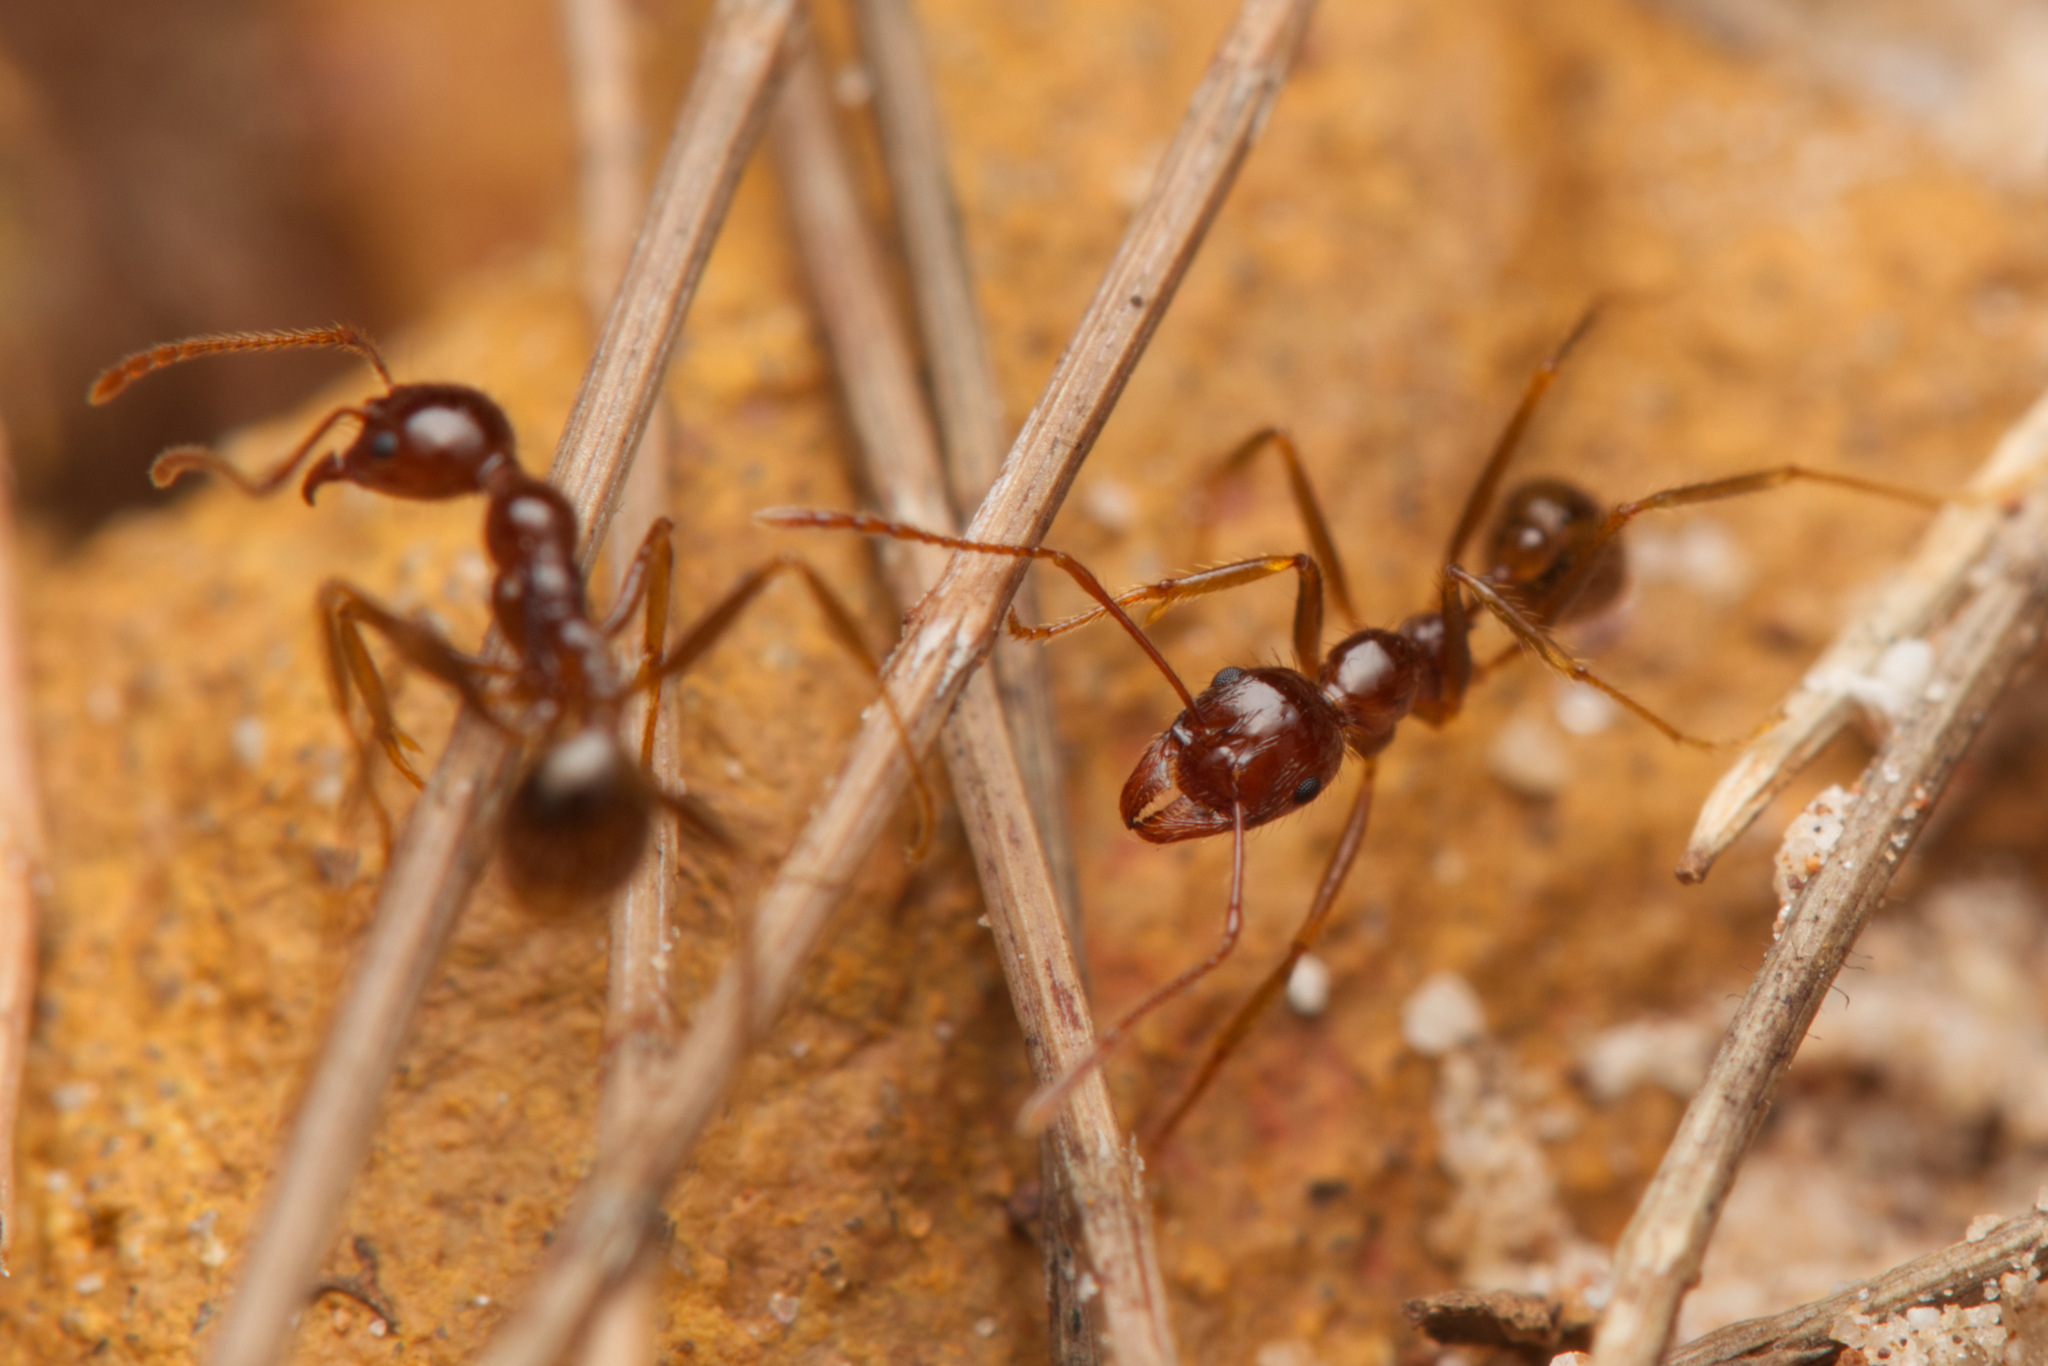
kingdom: Animalia
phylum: Arthropoda
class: Insecta
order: Hymenoptera
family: Formicidae
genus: Aphaenogaster
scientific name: Aphaenogaster longiceps
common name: Funnel ant
